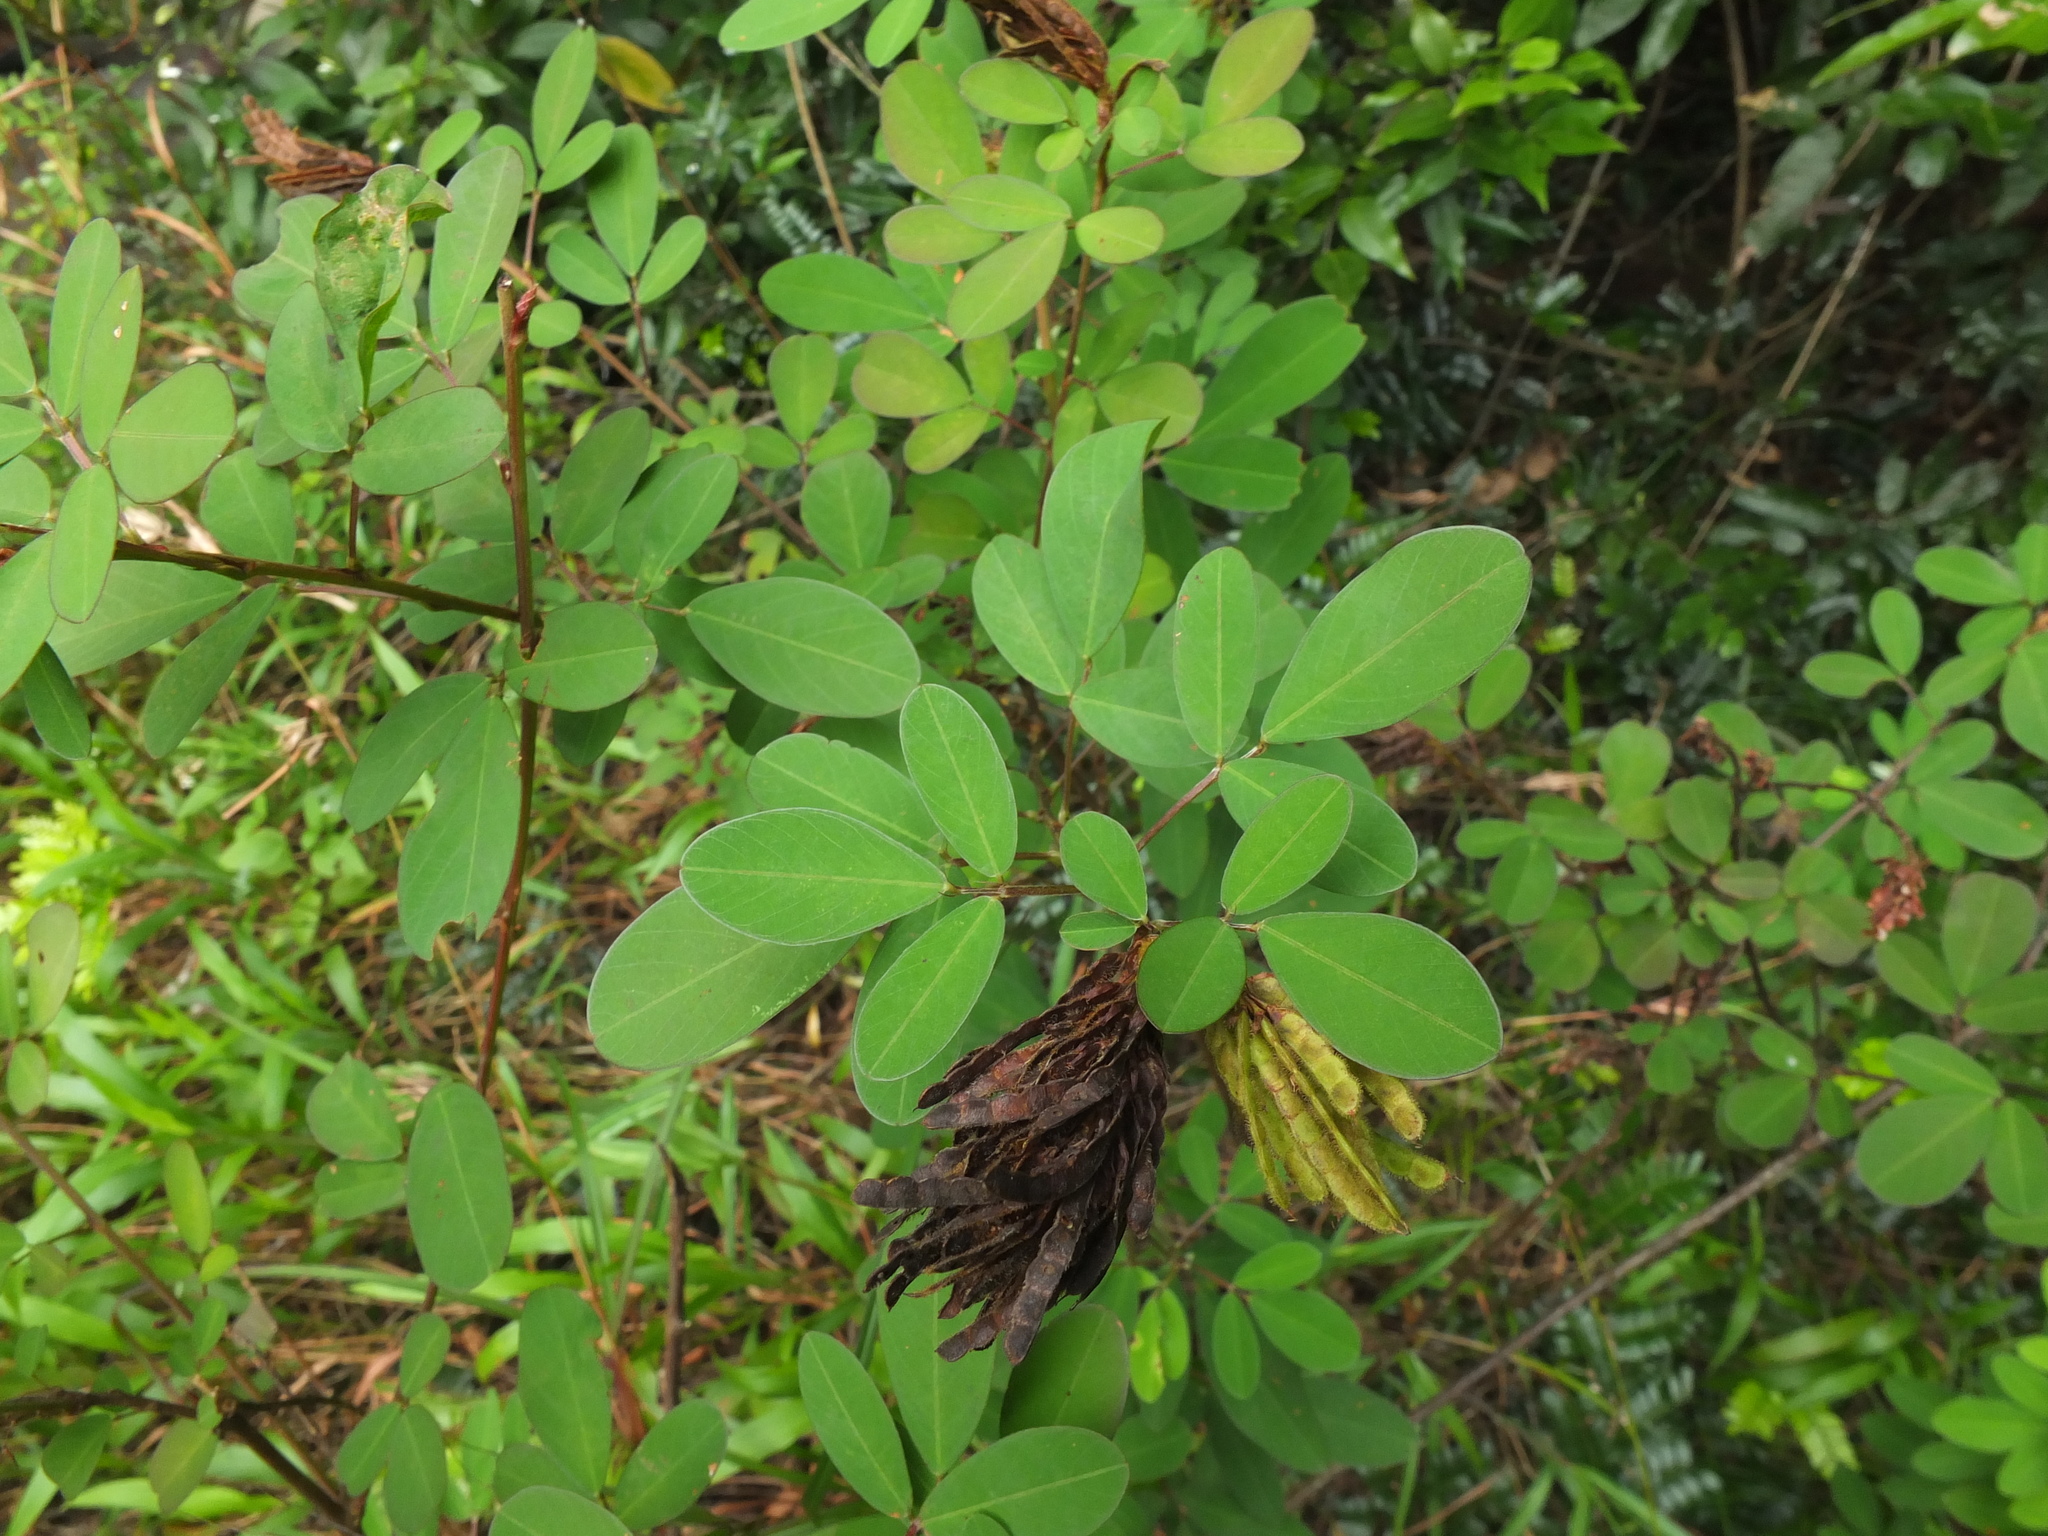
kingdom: Plantae
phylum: Tracheophyta
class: Magnoliopsida
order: Fabales
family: Fabaceae
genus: Grona
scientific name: Grona heterocarpos
